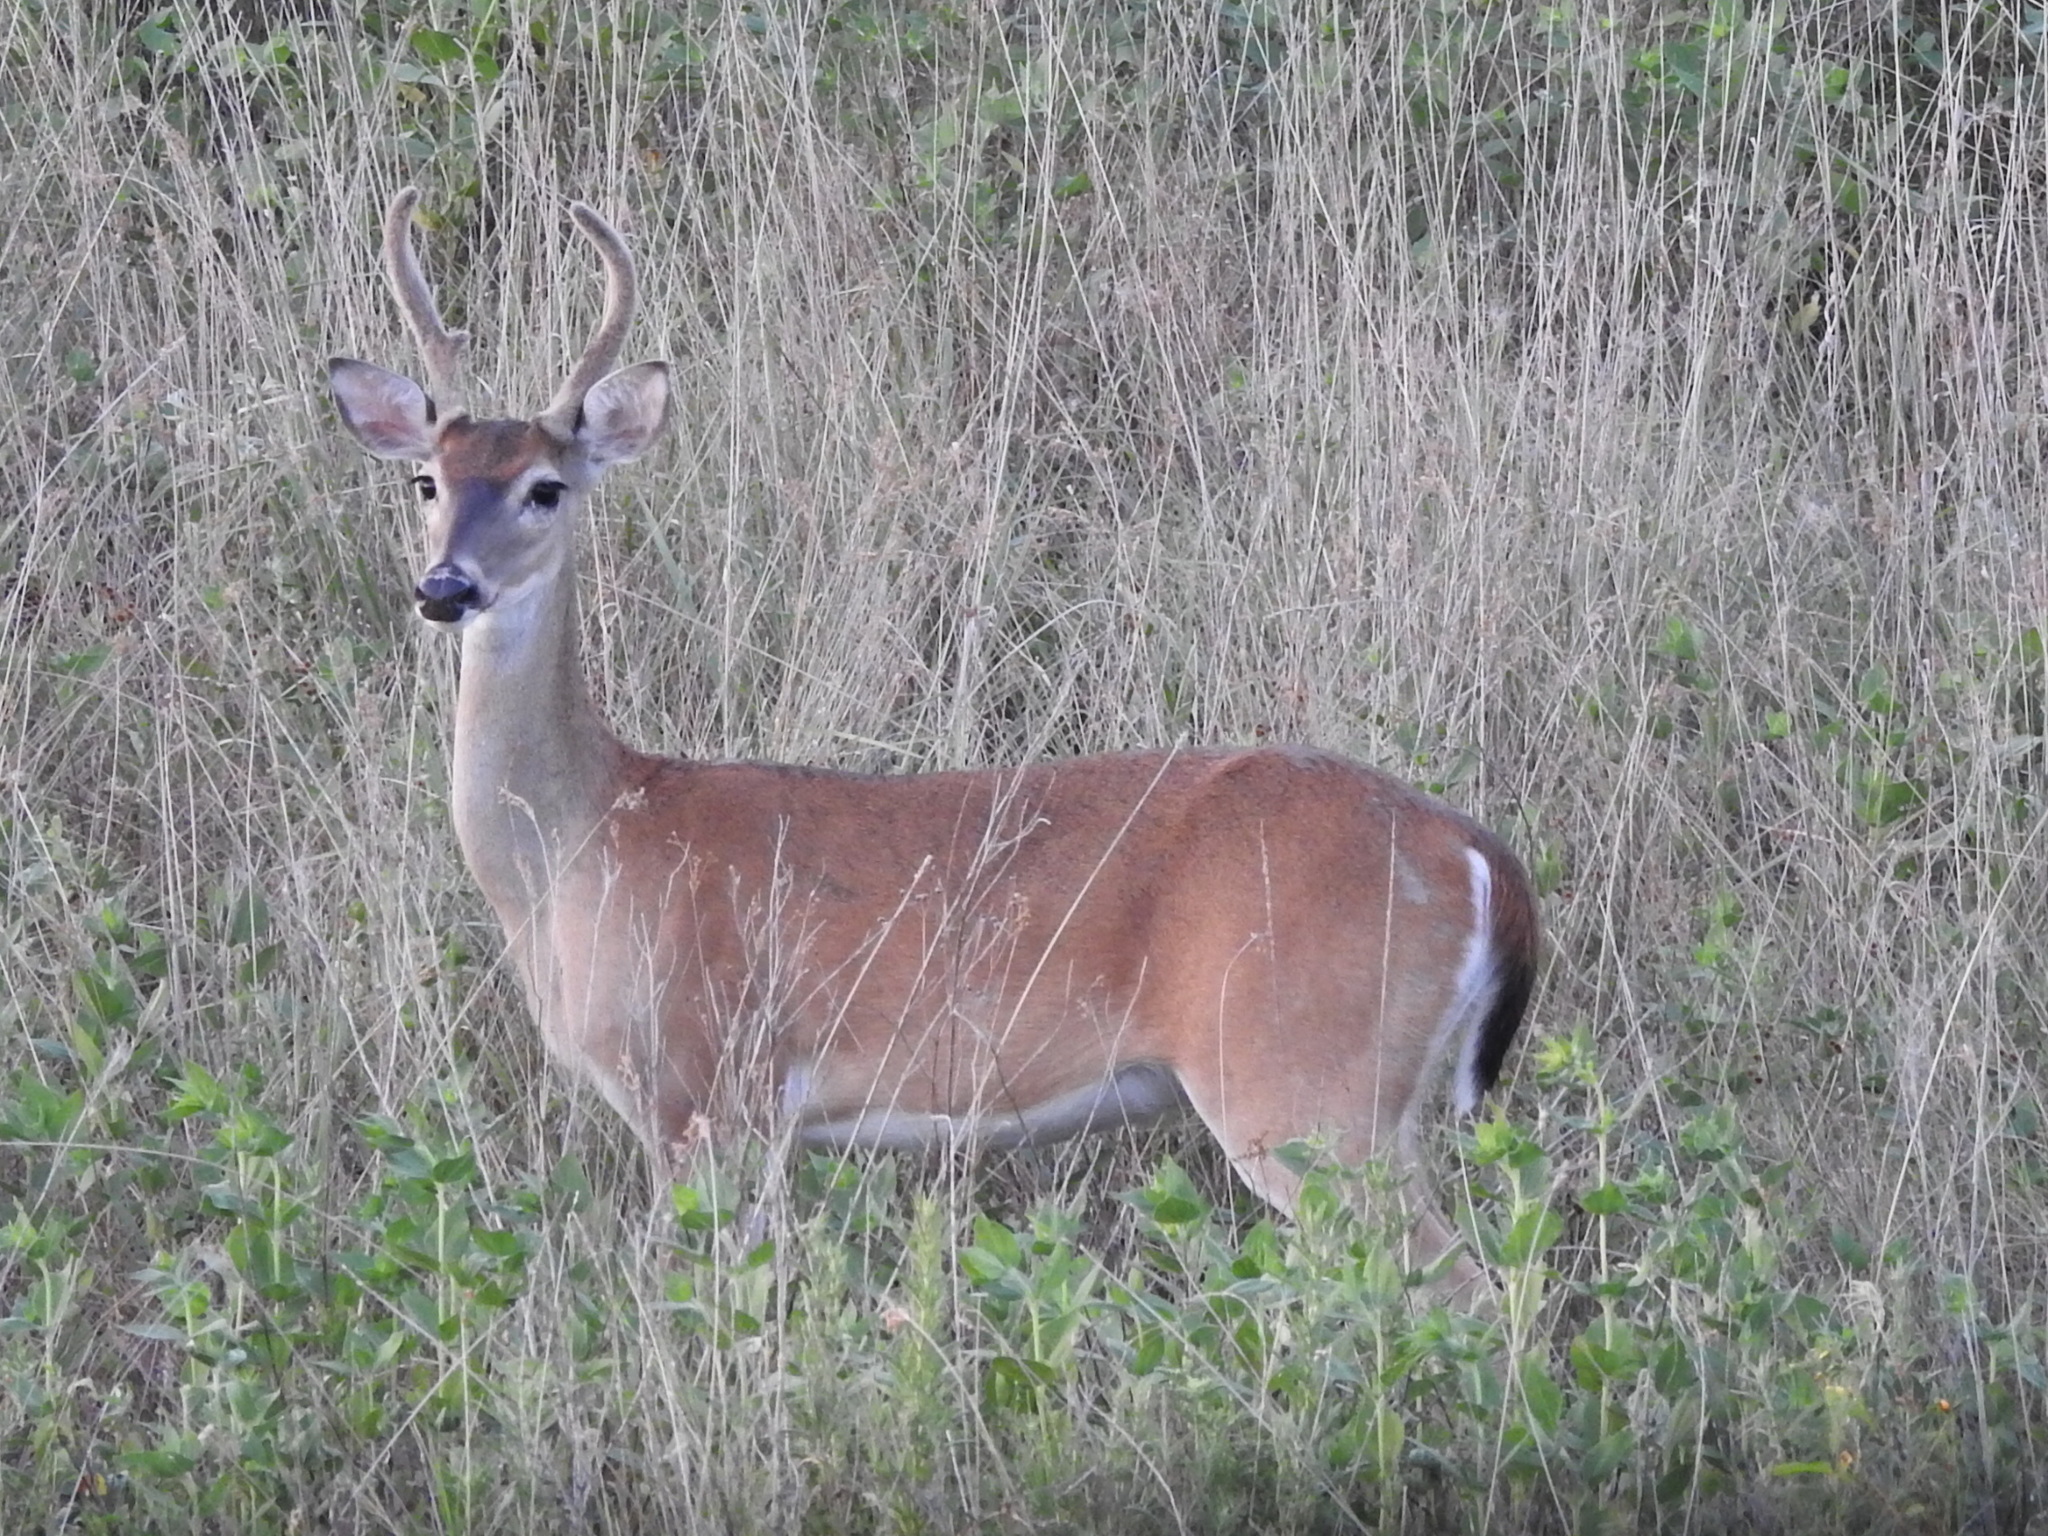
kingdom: Animalia
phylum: Chordata
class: Mammalia
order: Artiodactyla
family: Cervidae
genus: Odocoileus
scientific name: Odocoileus virginianus
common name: White-tailed deer
